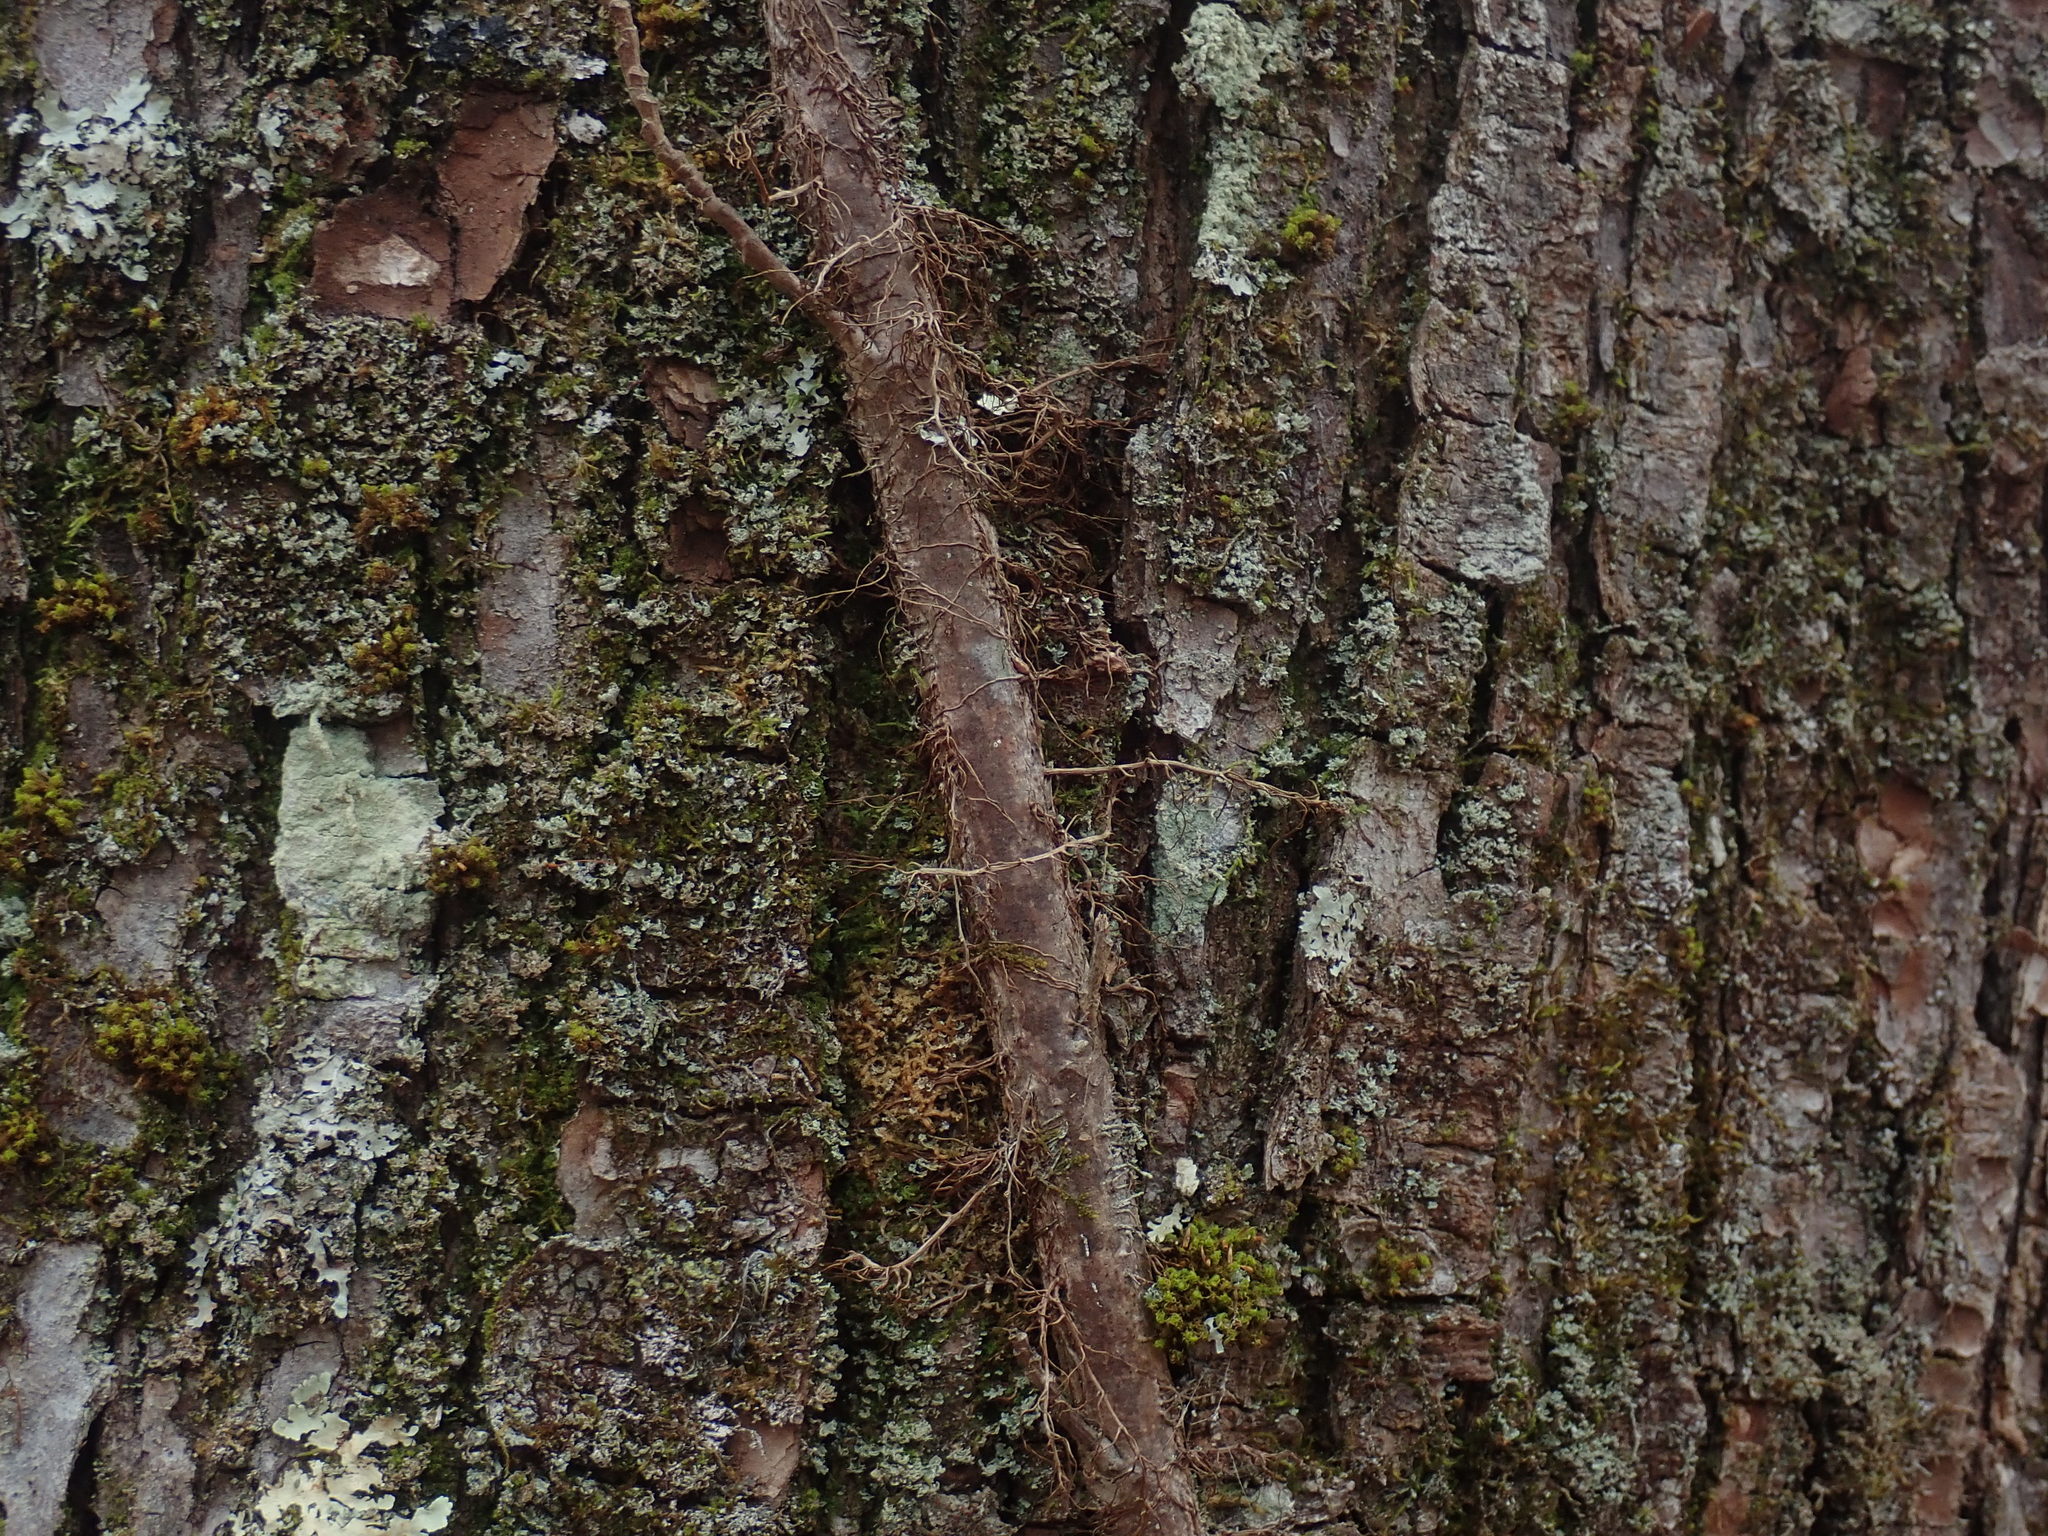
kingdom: Plantae
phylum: Tracheophyta
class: Magnoliopsida
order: Sapindales
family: Anacardiaceae
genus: Toxicodendron
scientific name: Toxicodendron radicans
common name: Poison ivy
